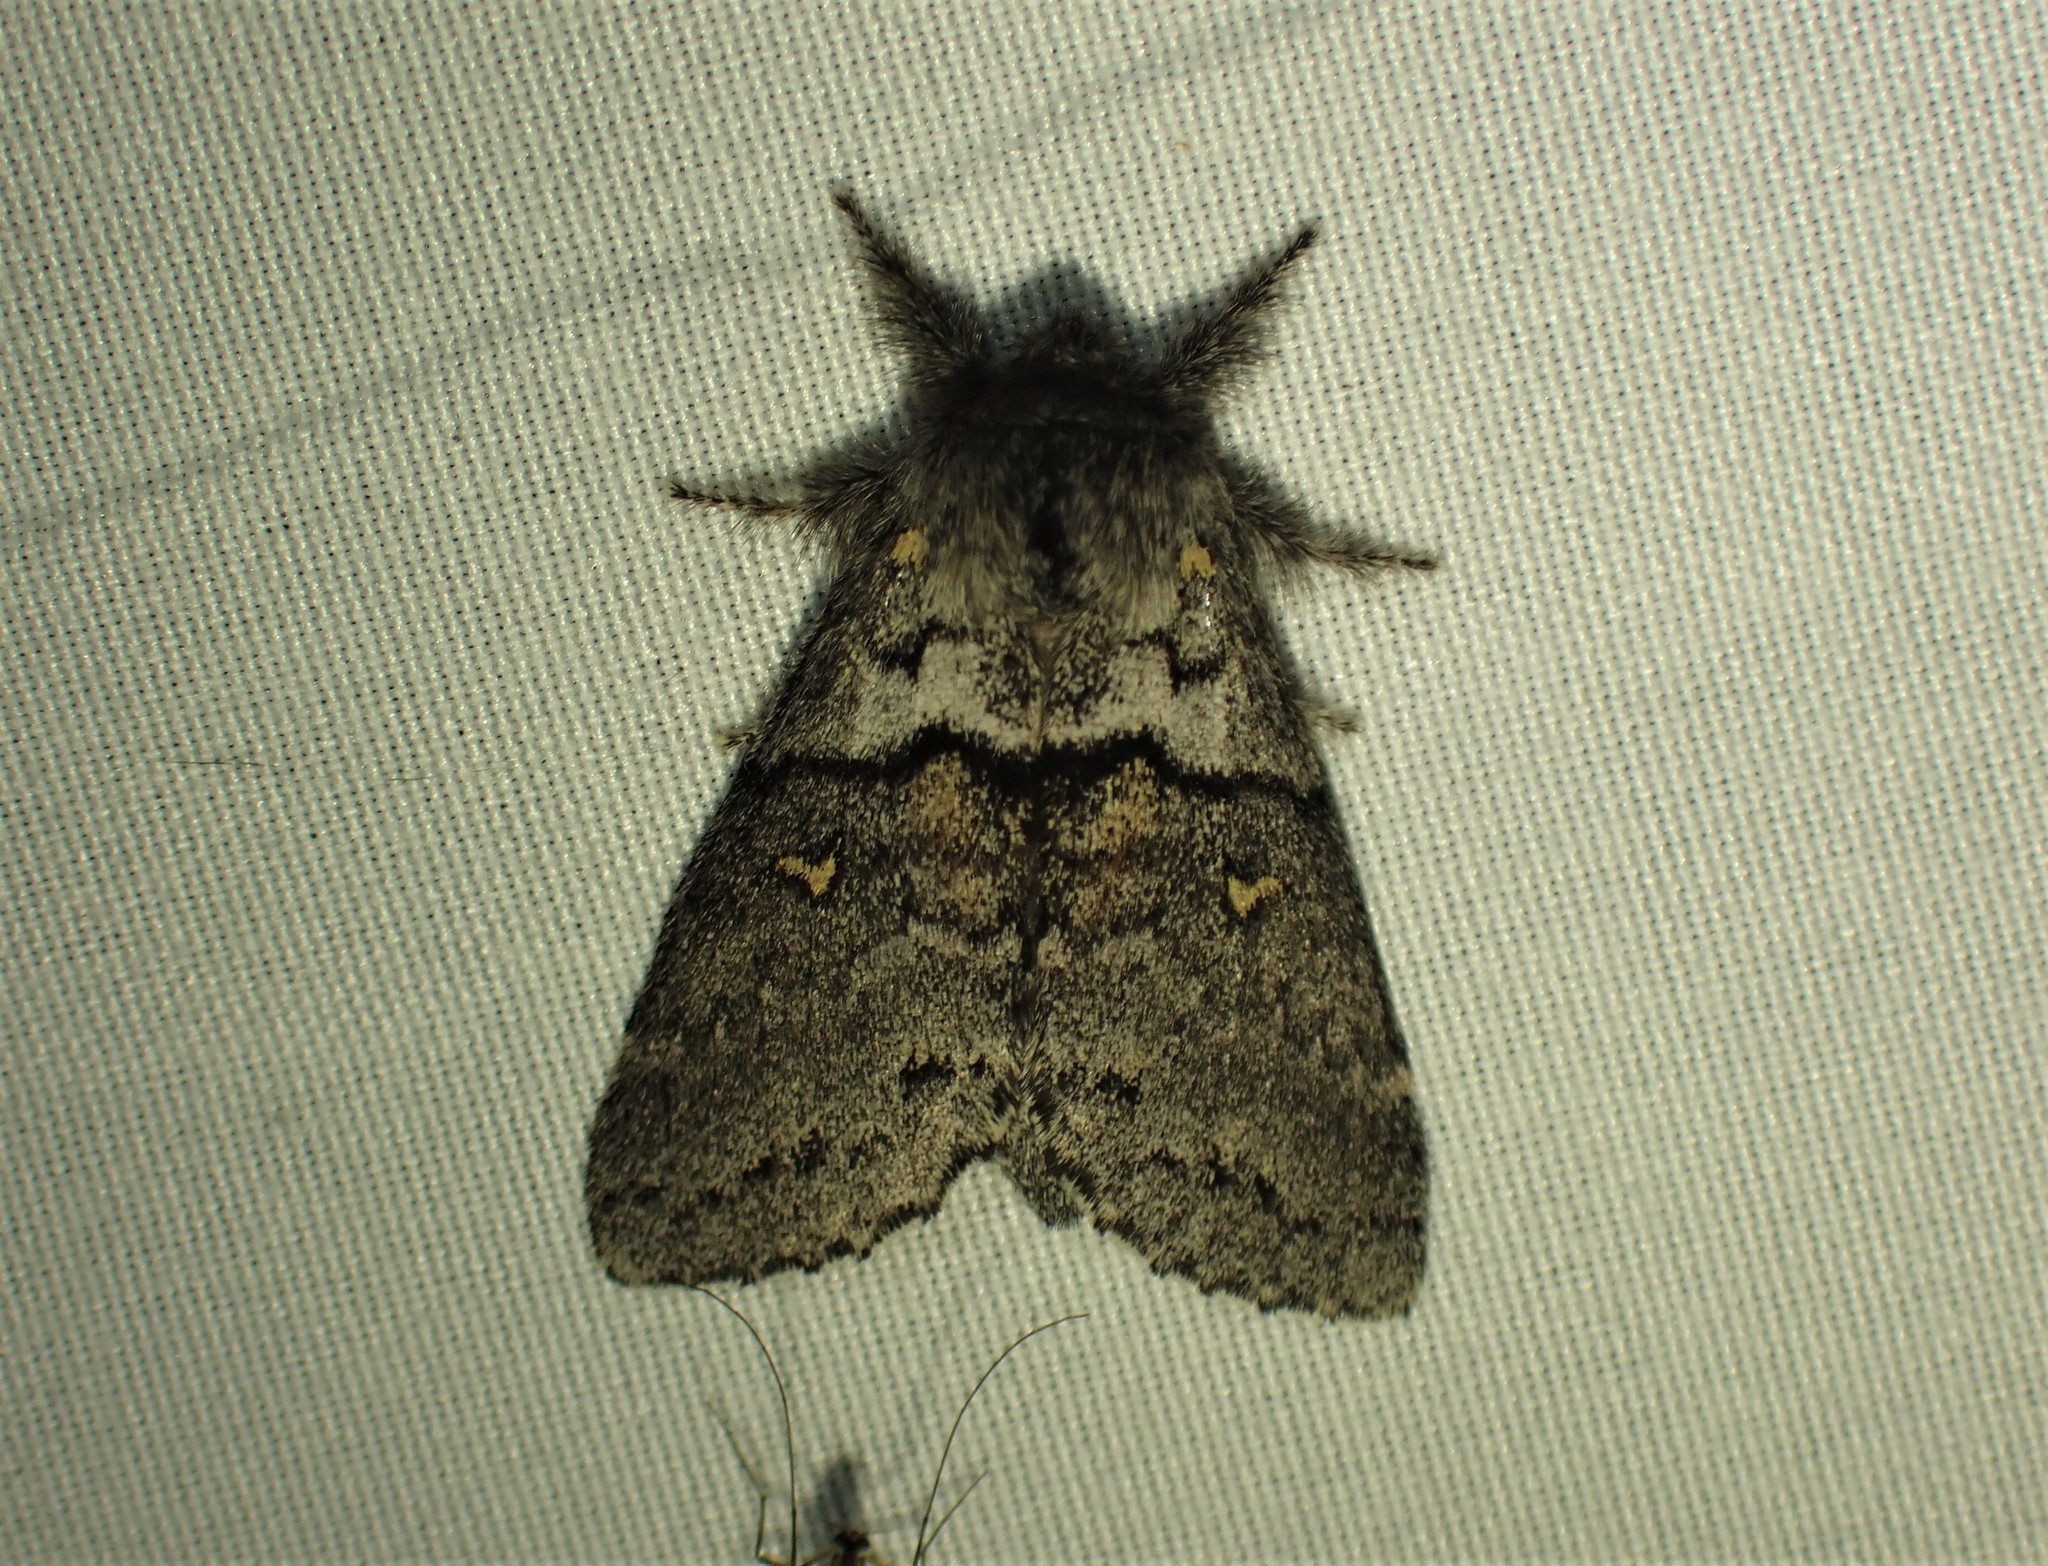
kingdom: Animalia
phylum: Arthropoda
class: Insecta
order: Lepidoptera
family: Notodontidae
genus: Gluphisia
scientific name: Gluphisia avimacula
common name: Four-spotted gluphisia moth
